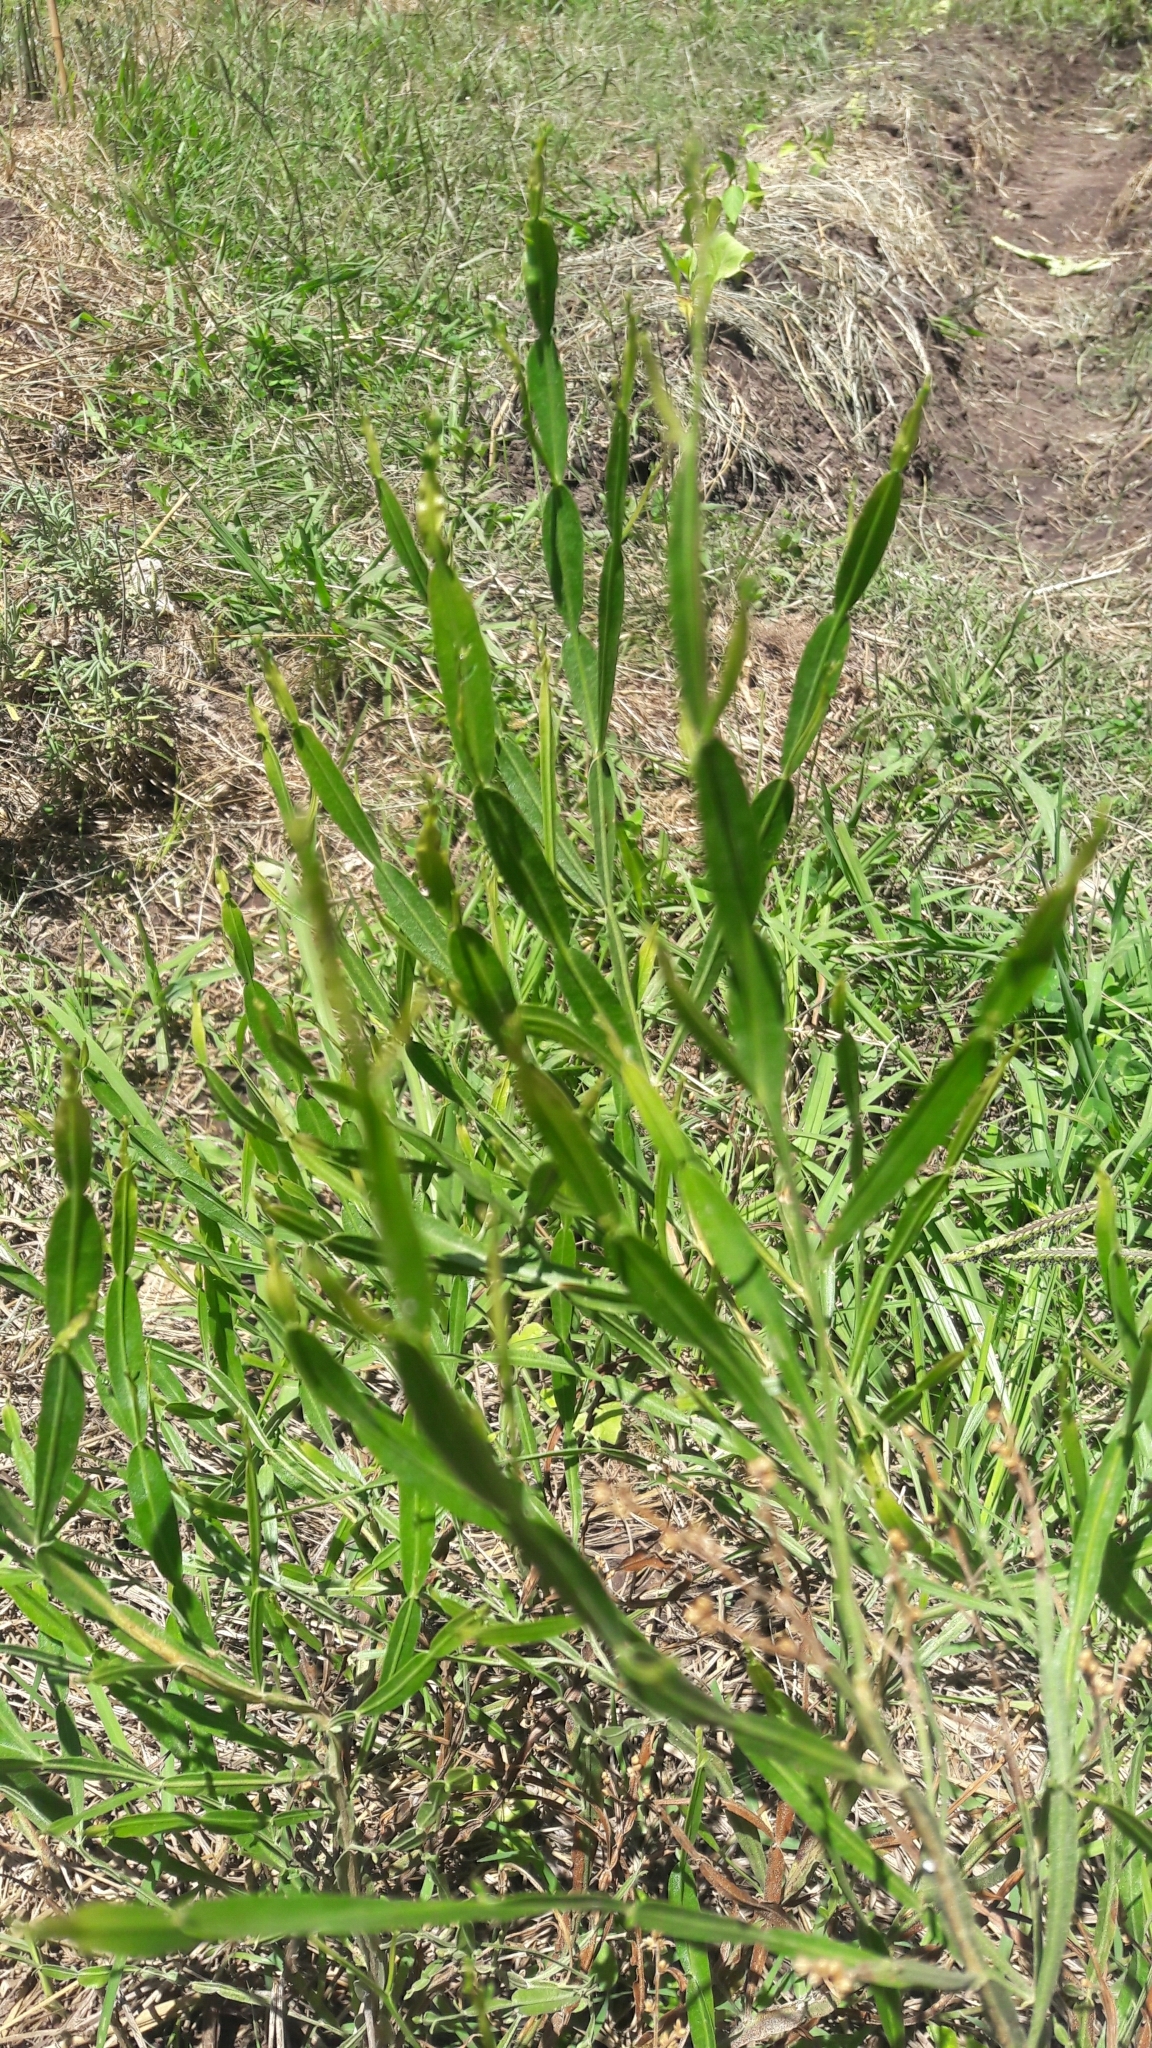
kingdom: Plantae
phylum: Tracheophyta
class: Magnoliopsida
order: Asterales
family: Asteraceae
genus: Baccharis
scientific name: Baccharis articulata
